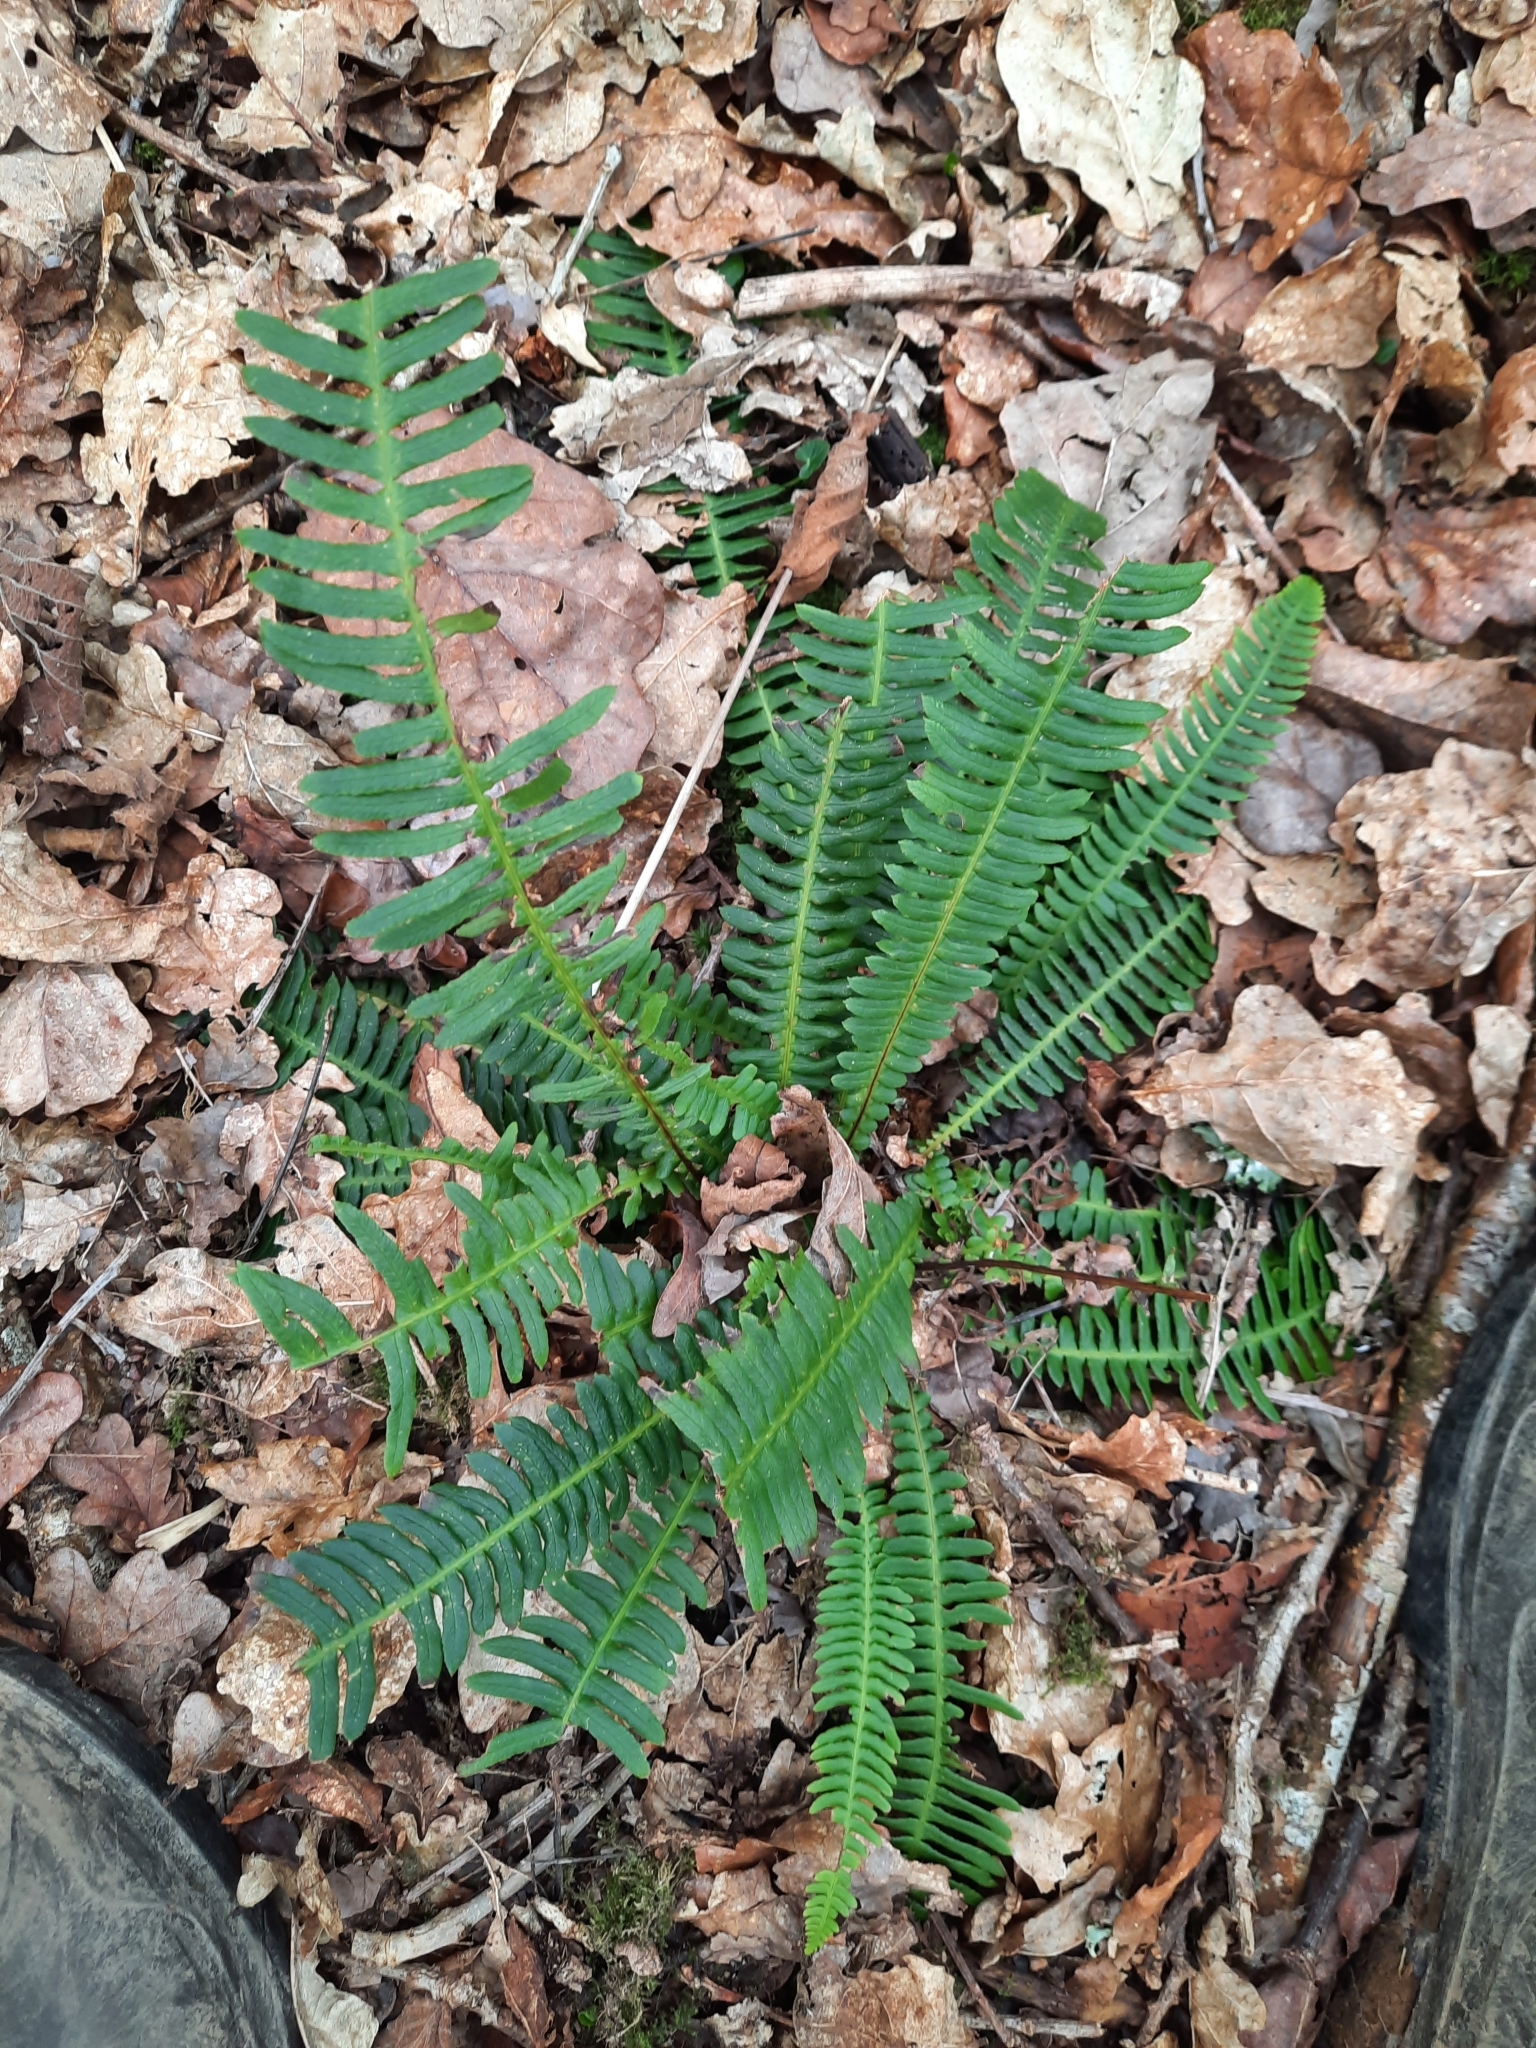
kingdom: Plantae
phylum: Tracheophyta
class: Polypodiopsida
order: Polypodiales
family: Blechnaceae
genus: Struthiopteris
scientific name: Struthiopteris spicant
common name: Deer fern
